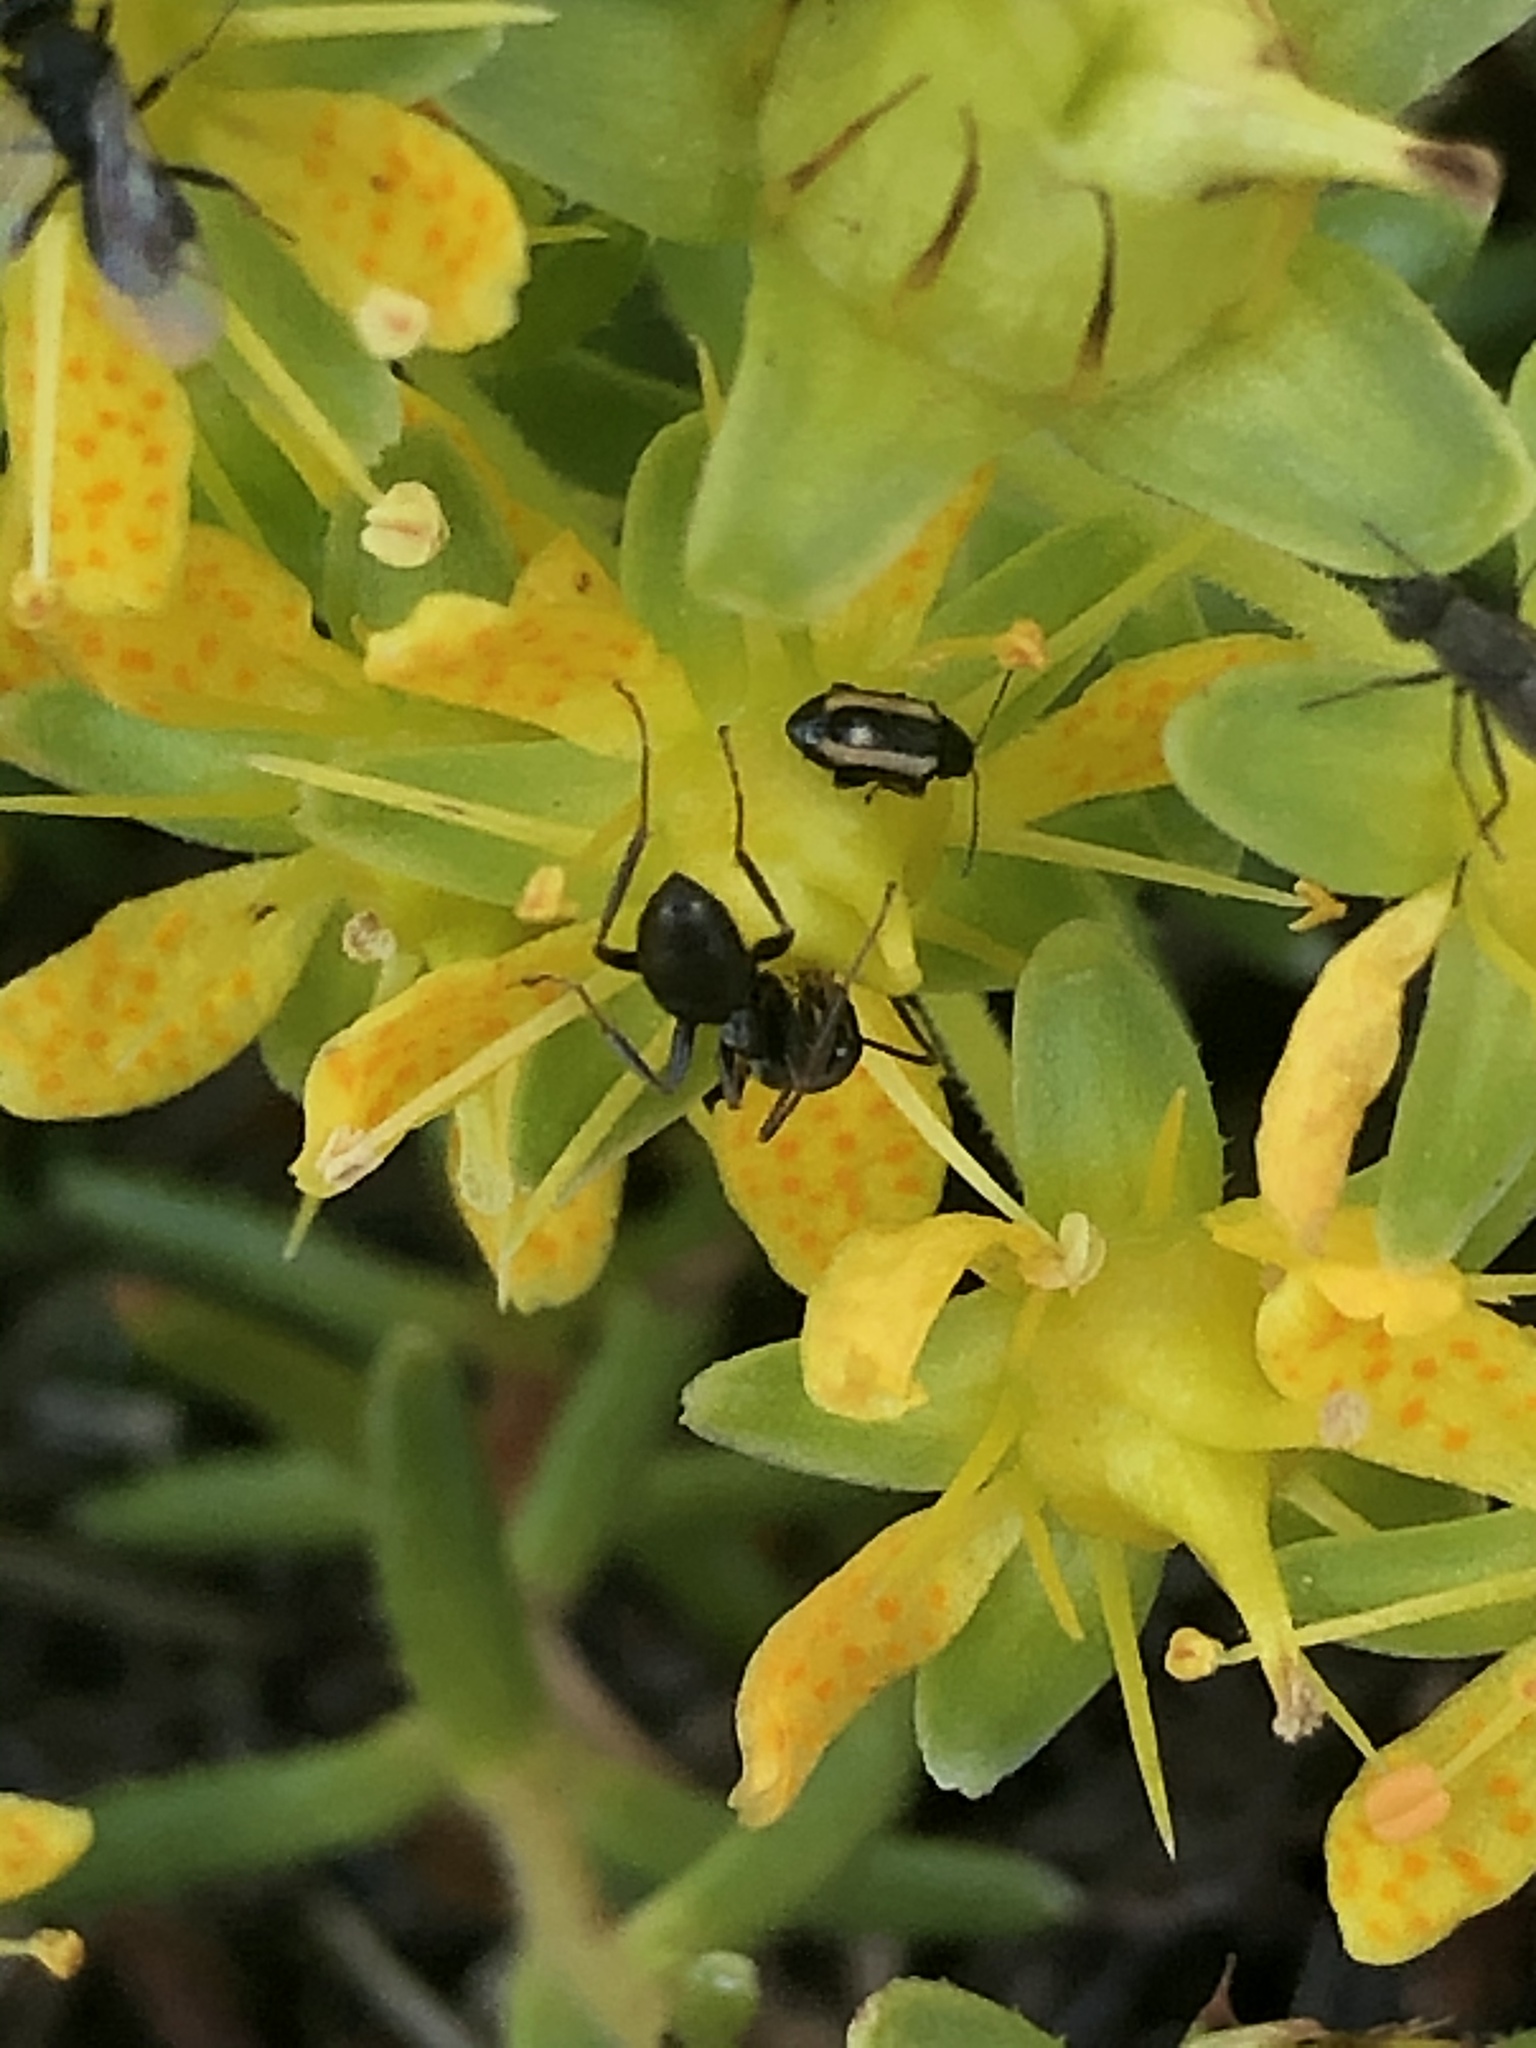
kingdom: Plantae
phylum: Tracheophyta
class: Magnoliopsida
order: Saxifragales
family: Saxifragaceae
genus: Saxifraga
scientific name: Saxifraga aizoides
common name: Yellow mountain saxifrage
